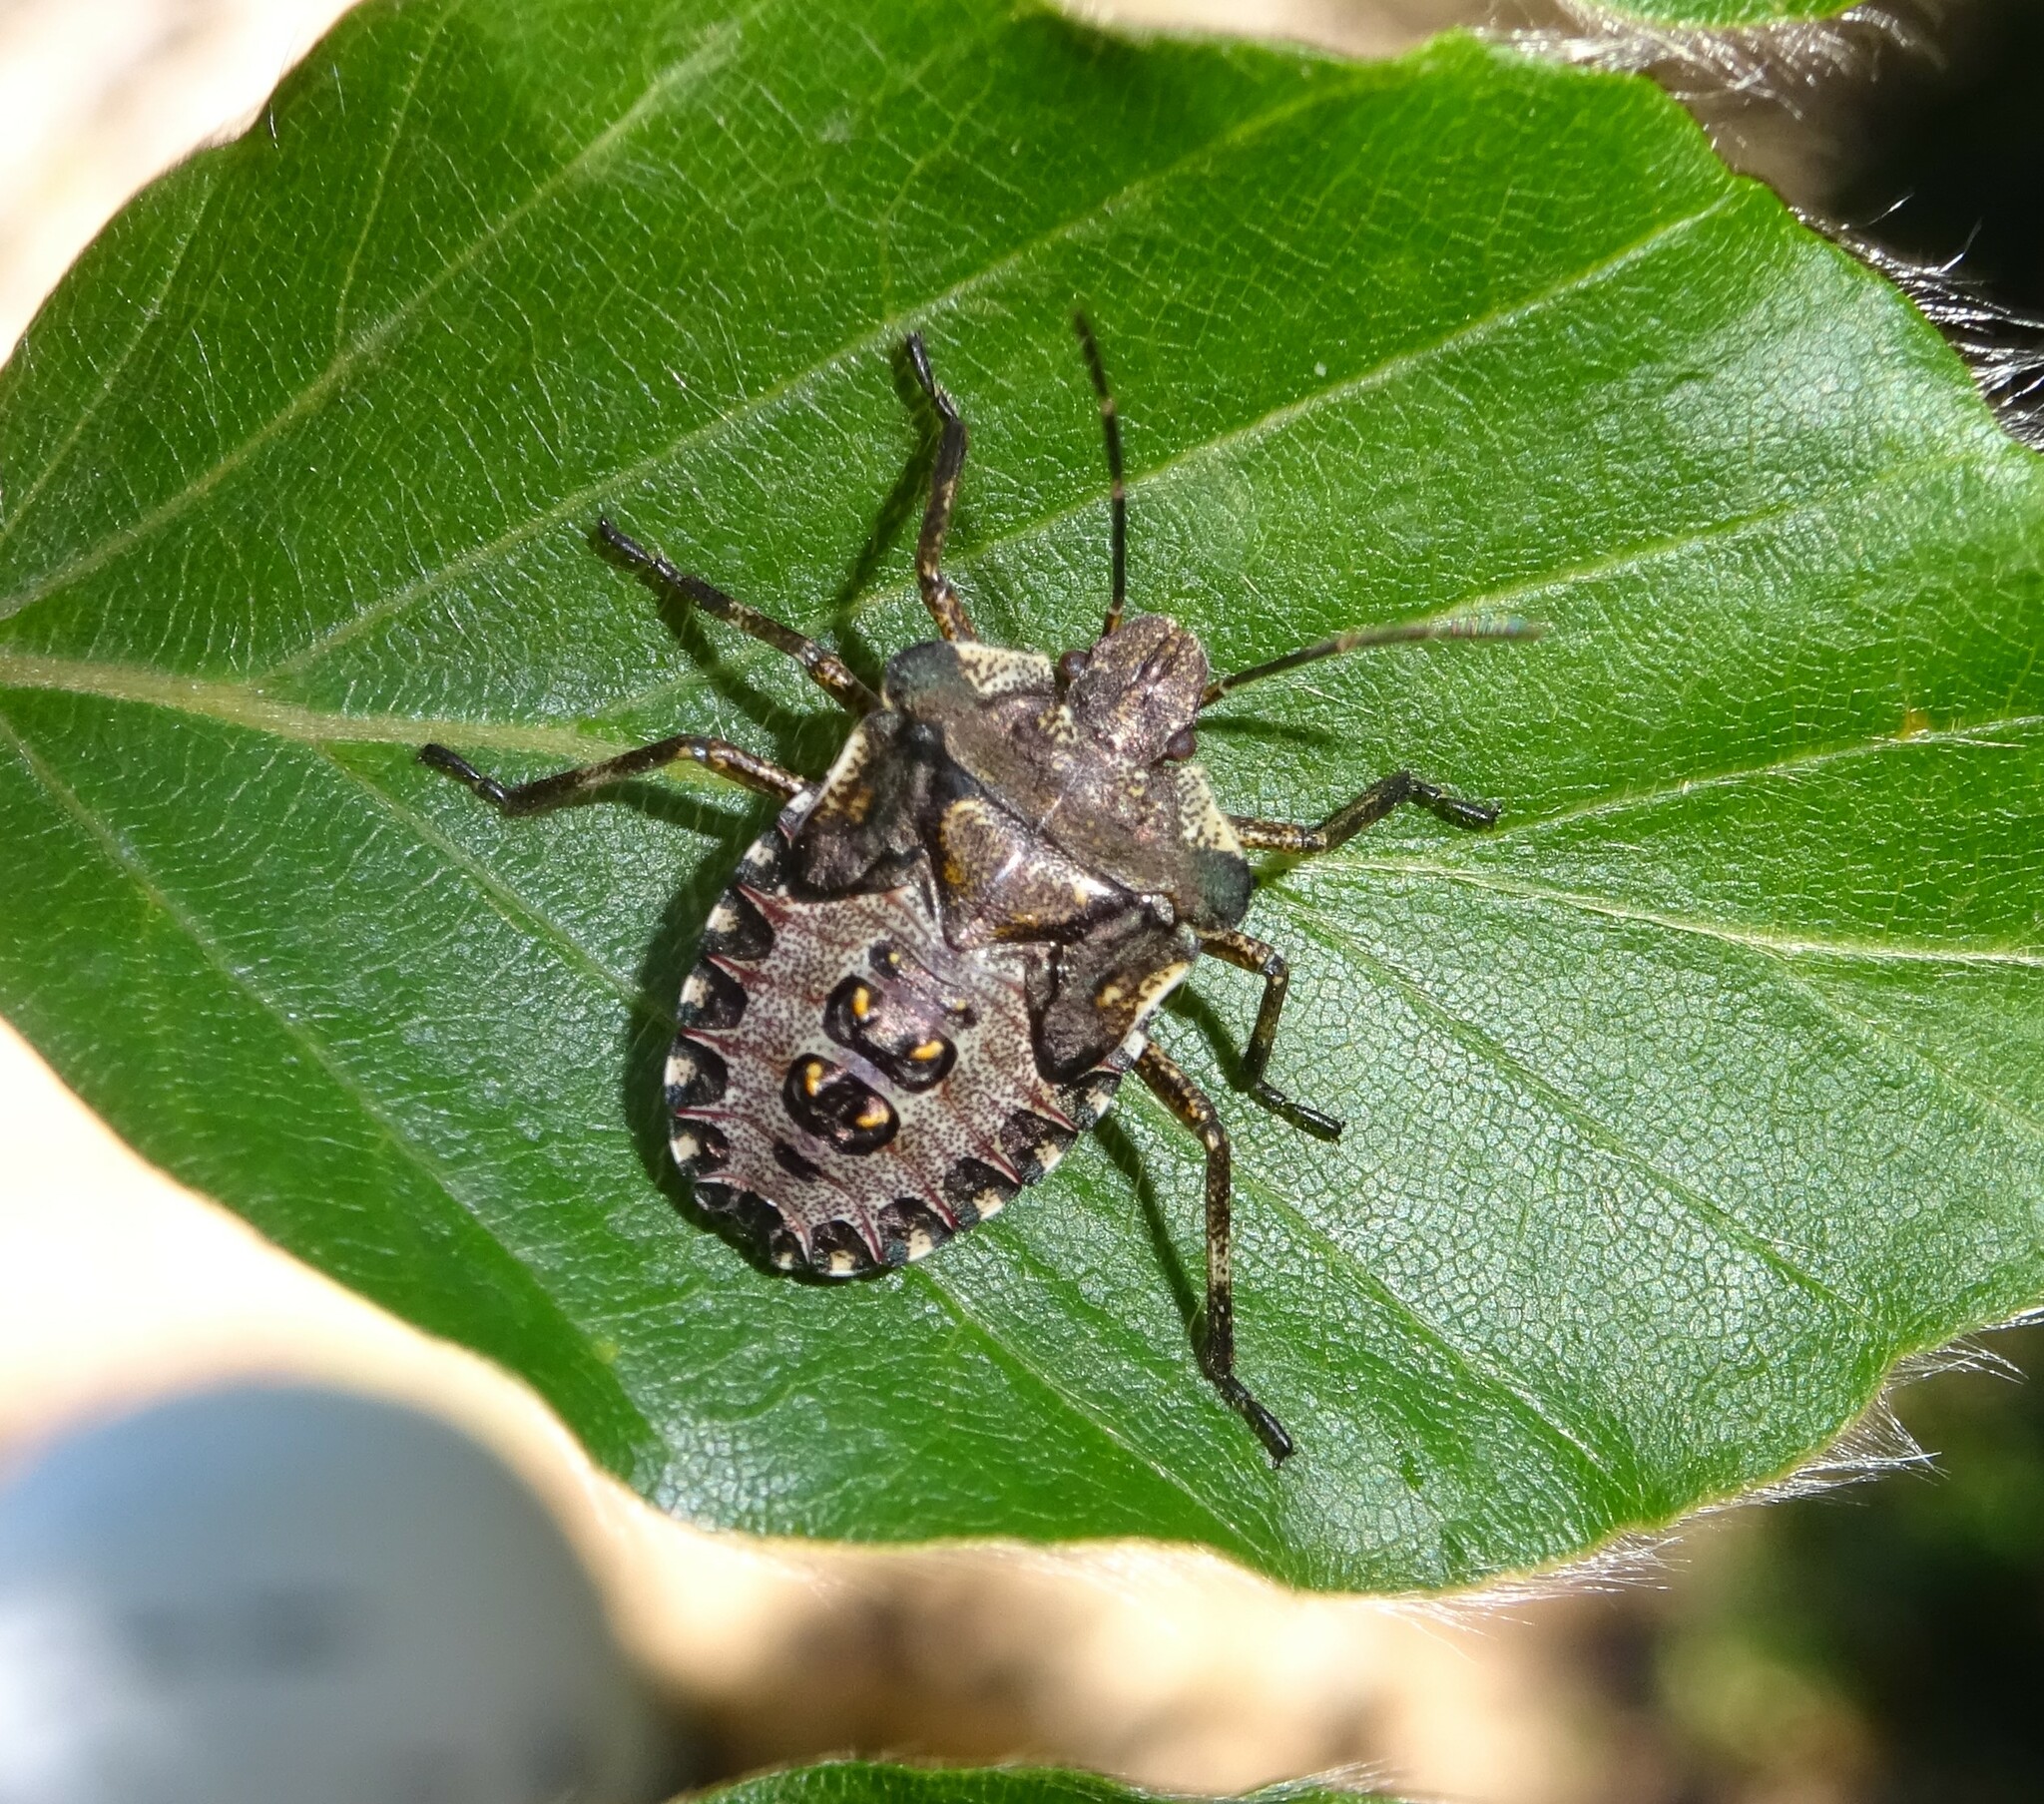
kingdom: Animalia
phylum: Arthropoda
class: Insecta
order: Hemiptera
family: Pentatomidae
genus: Pentatoma
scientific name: Pentatoma rufipes
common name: Forest bug
